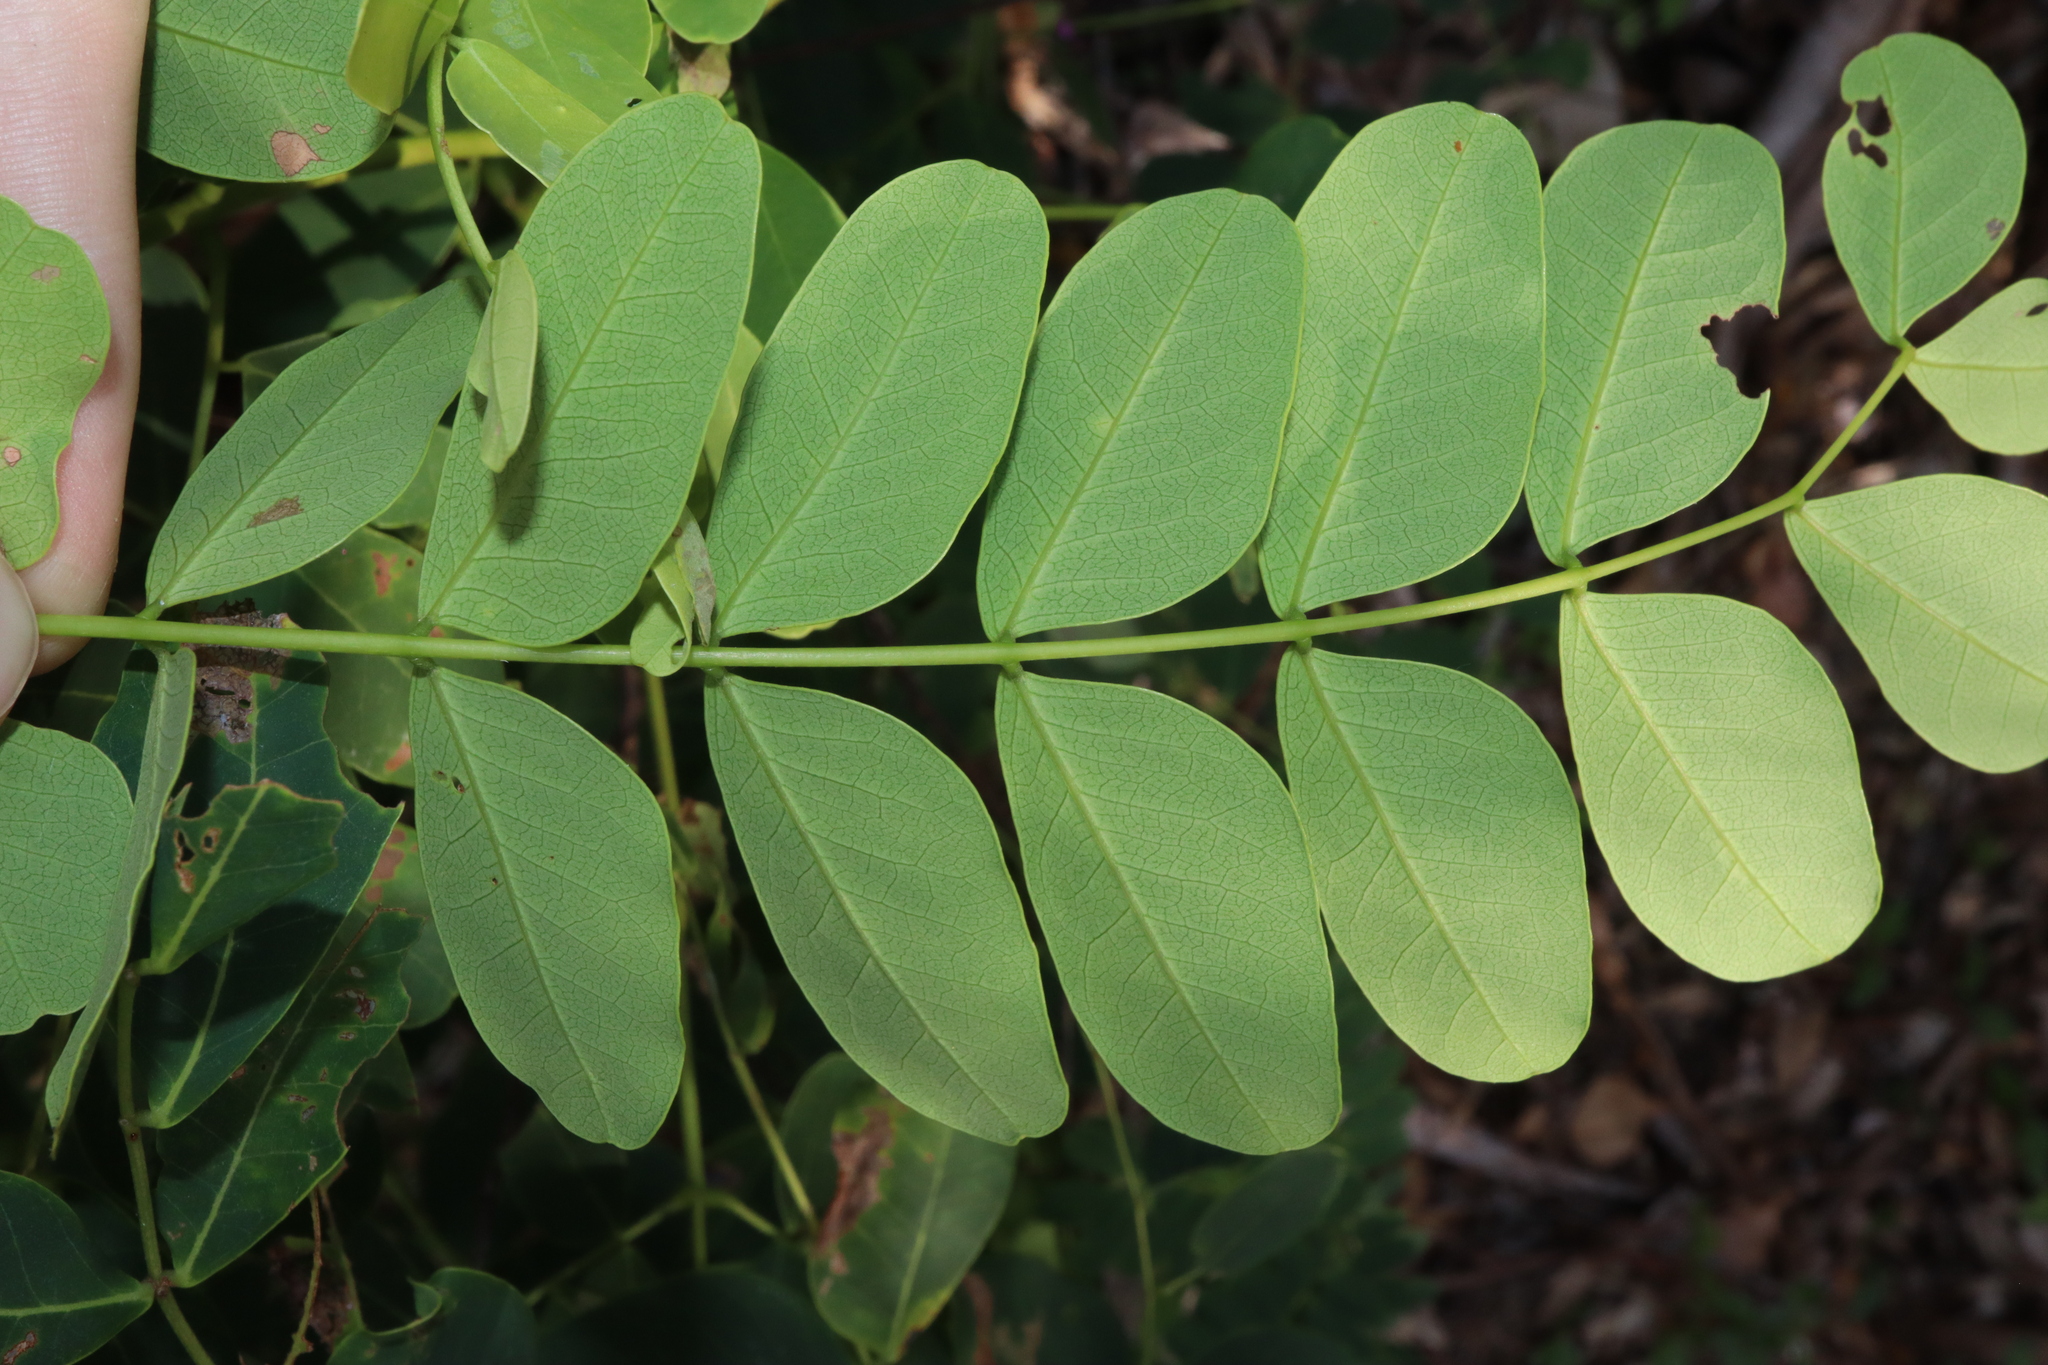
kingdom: Plantae
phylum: Tracheophyta
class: Magnoliopsida
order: Fabales
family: Fabaceae
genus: Albizia
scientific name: Albizia procera
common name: Tall albizia
